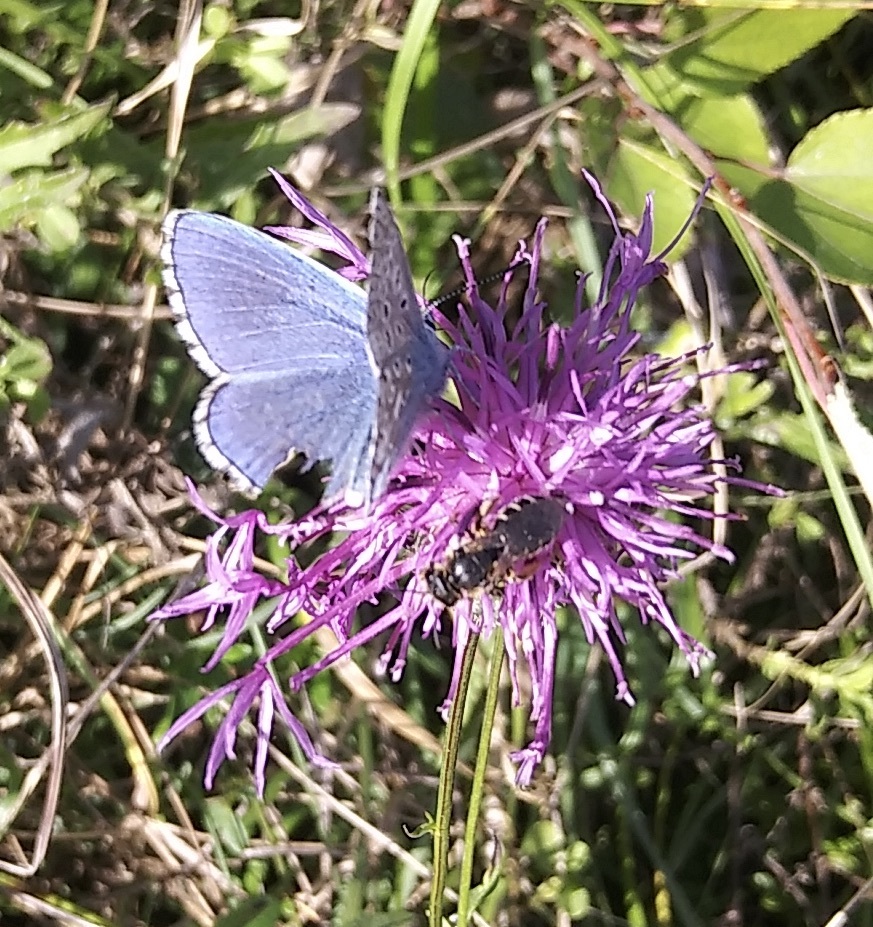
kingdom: Animalia
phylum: Arthropoda
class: Insecta
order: Lepidoptera
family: Lycaenidae
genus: Lysandra
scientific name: Lysandra bellargus
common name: Adonis blue
